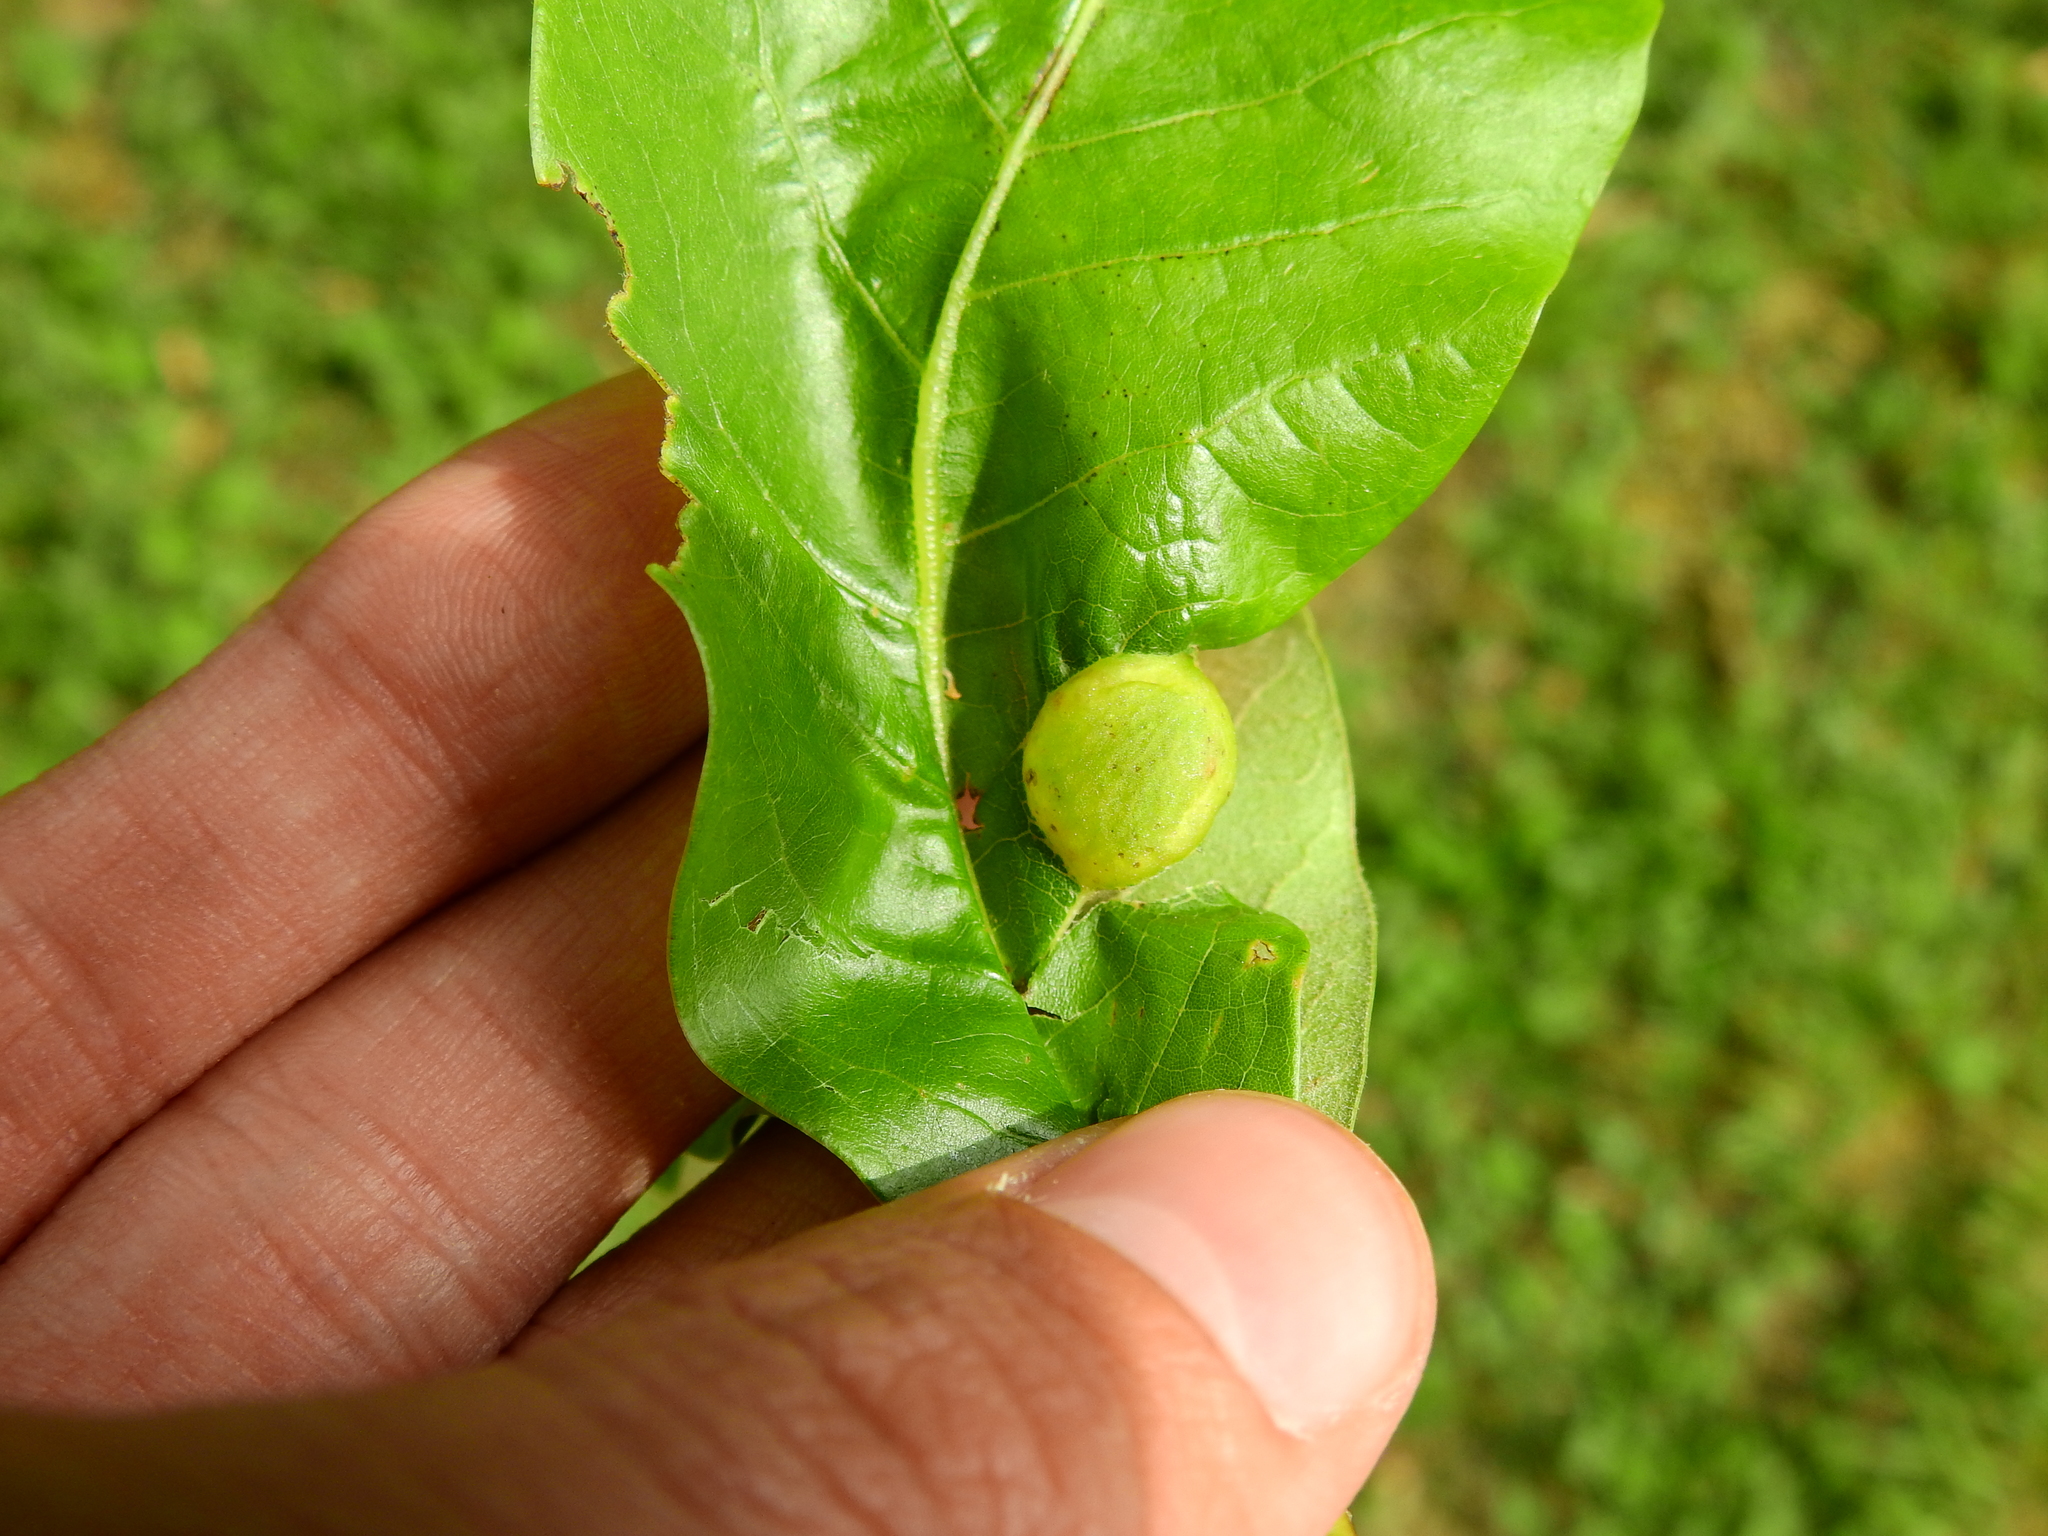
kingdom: Animalia
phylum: Arthropoda
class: Insecta
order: Hymenoptera
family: Cynipidae
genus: Dryocosmus
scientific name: Dryocosmus quercuspalustris
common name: Succulent oak gall wasp
